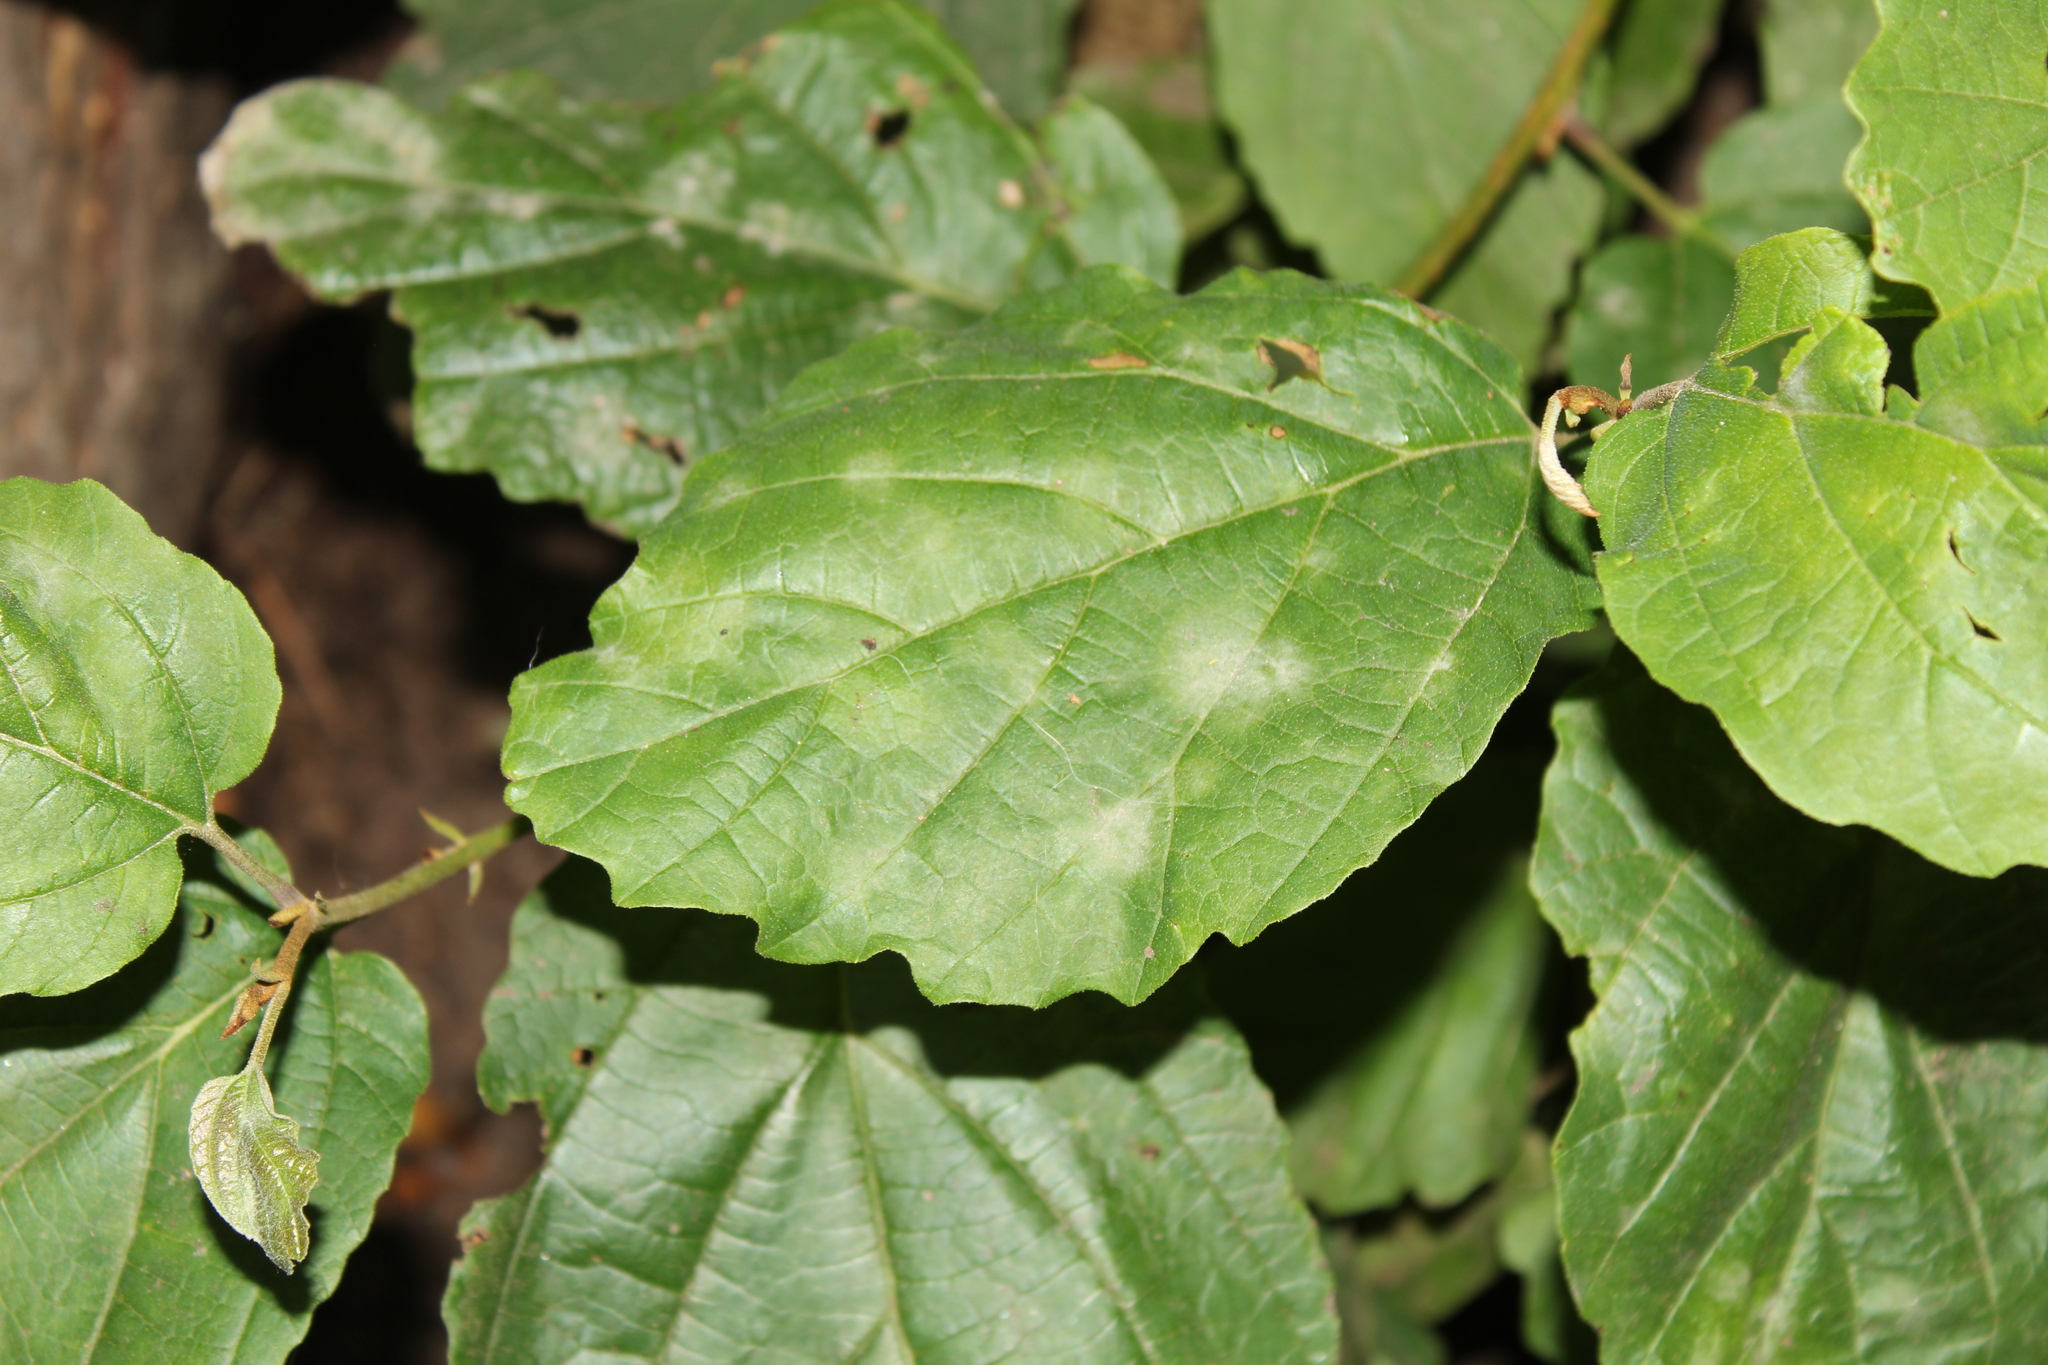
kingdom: Fungi
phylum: Ascomycota
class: Leotiomycetes
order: Helotiales
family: Erysiphaceae
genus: Podosphaera
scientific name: Podosphaera biuncinata
